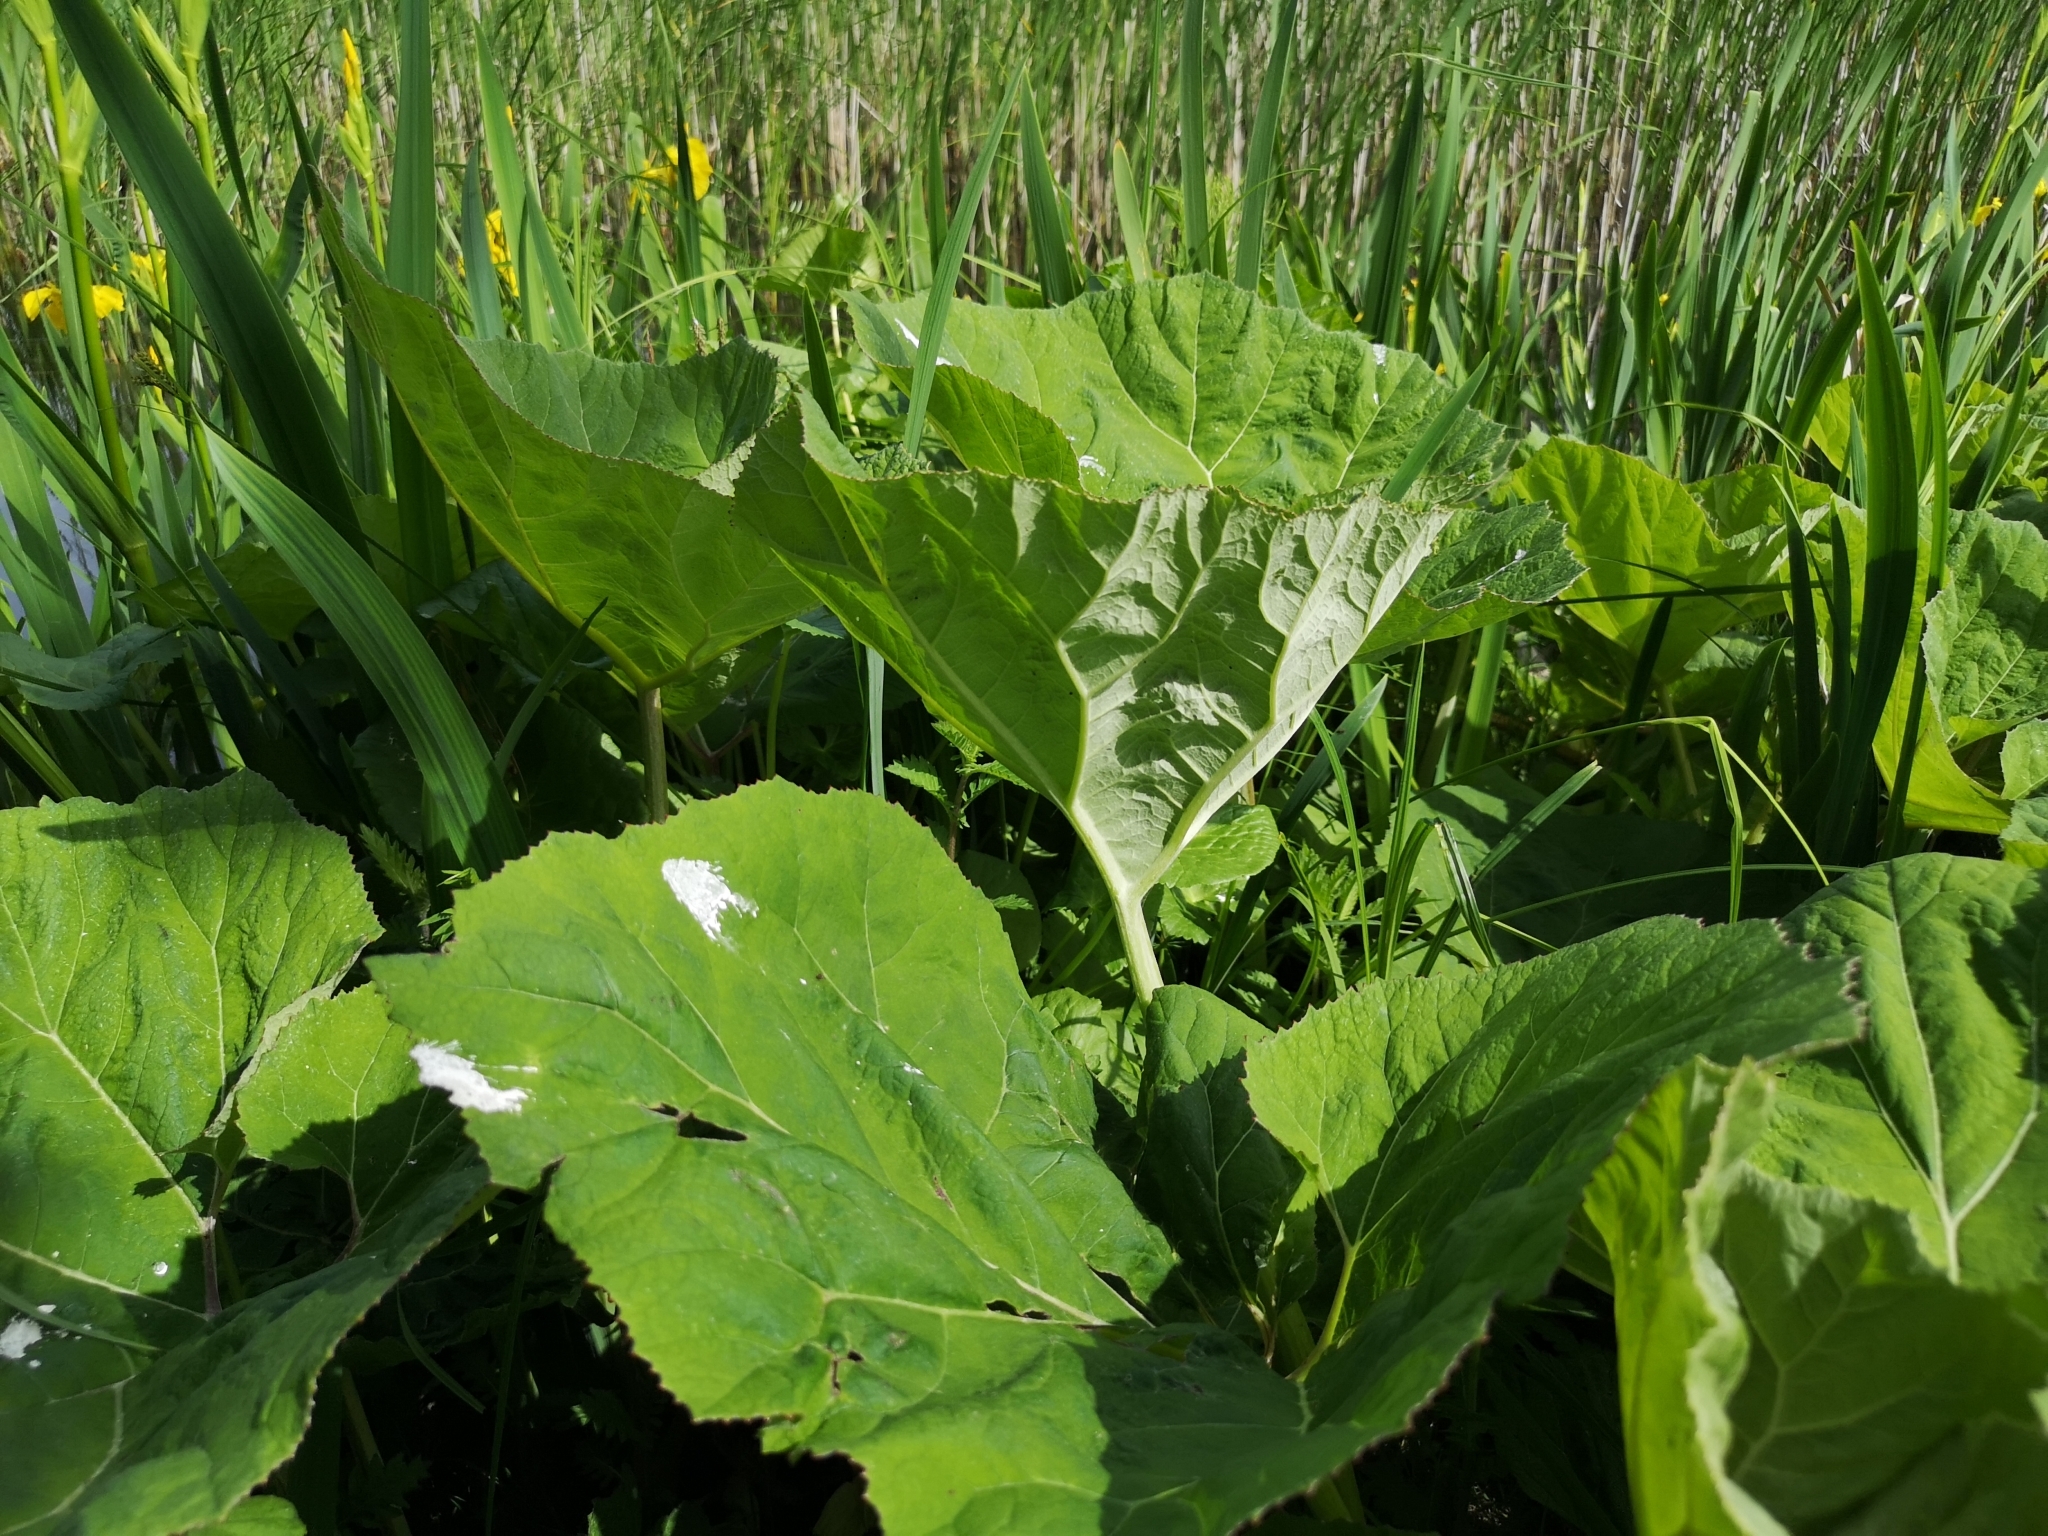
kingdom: Plantae
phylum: Tracheophyta
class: Magnoliopsida
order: Asterales
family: Asteraceae
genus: Petasites
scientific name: Petasites hybridus
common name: Butterbur
